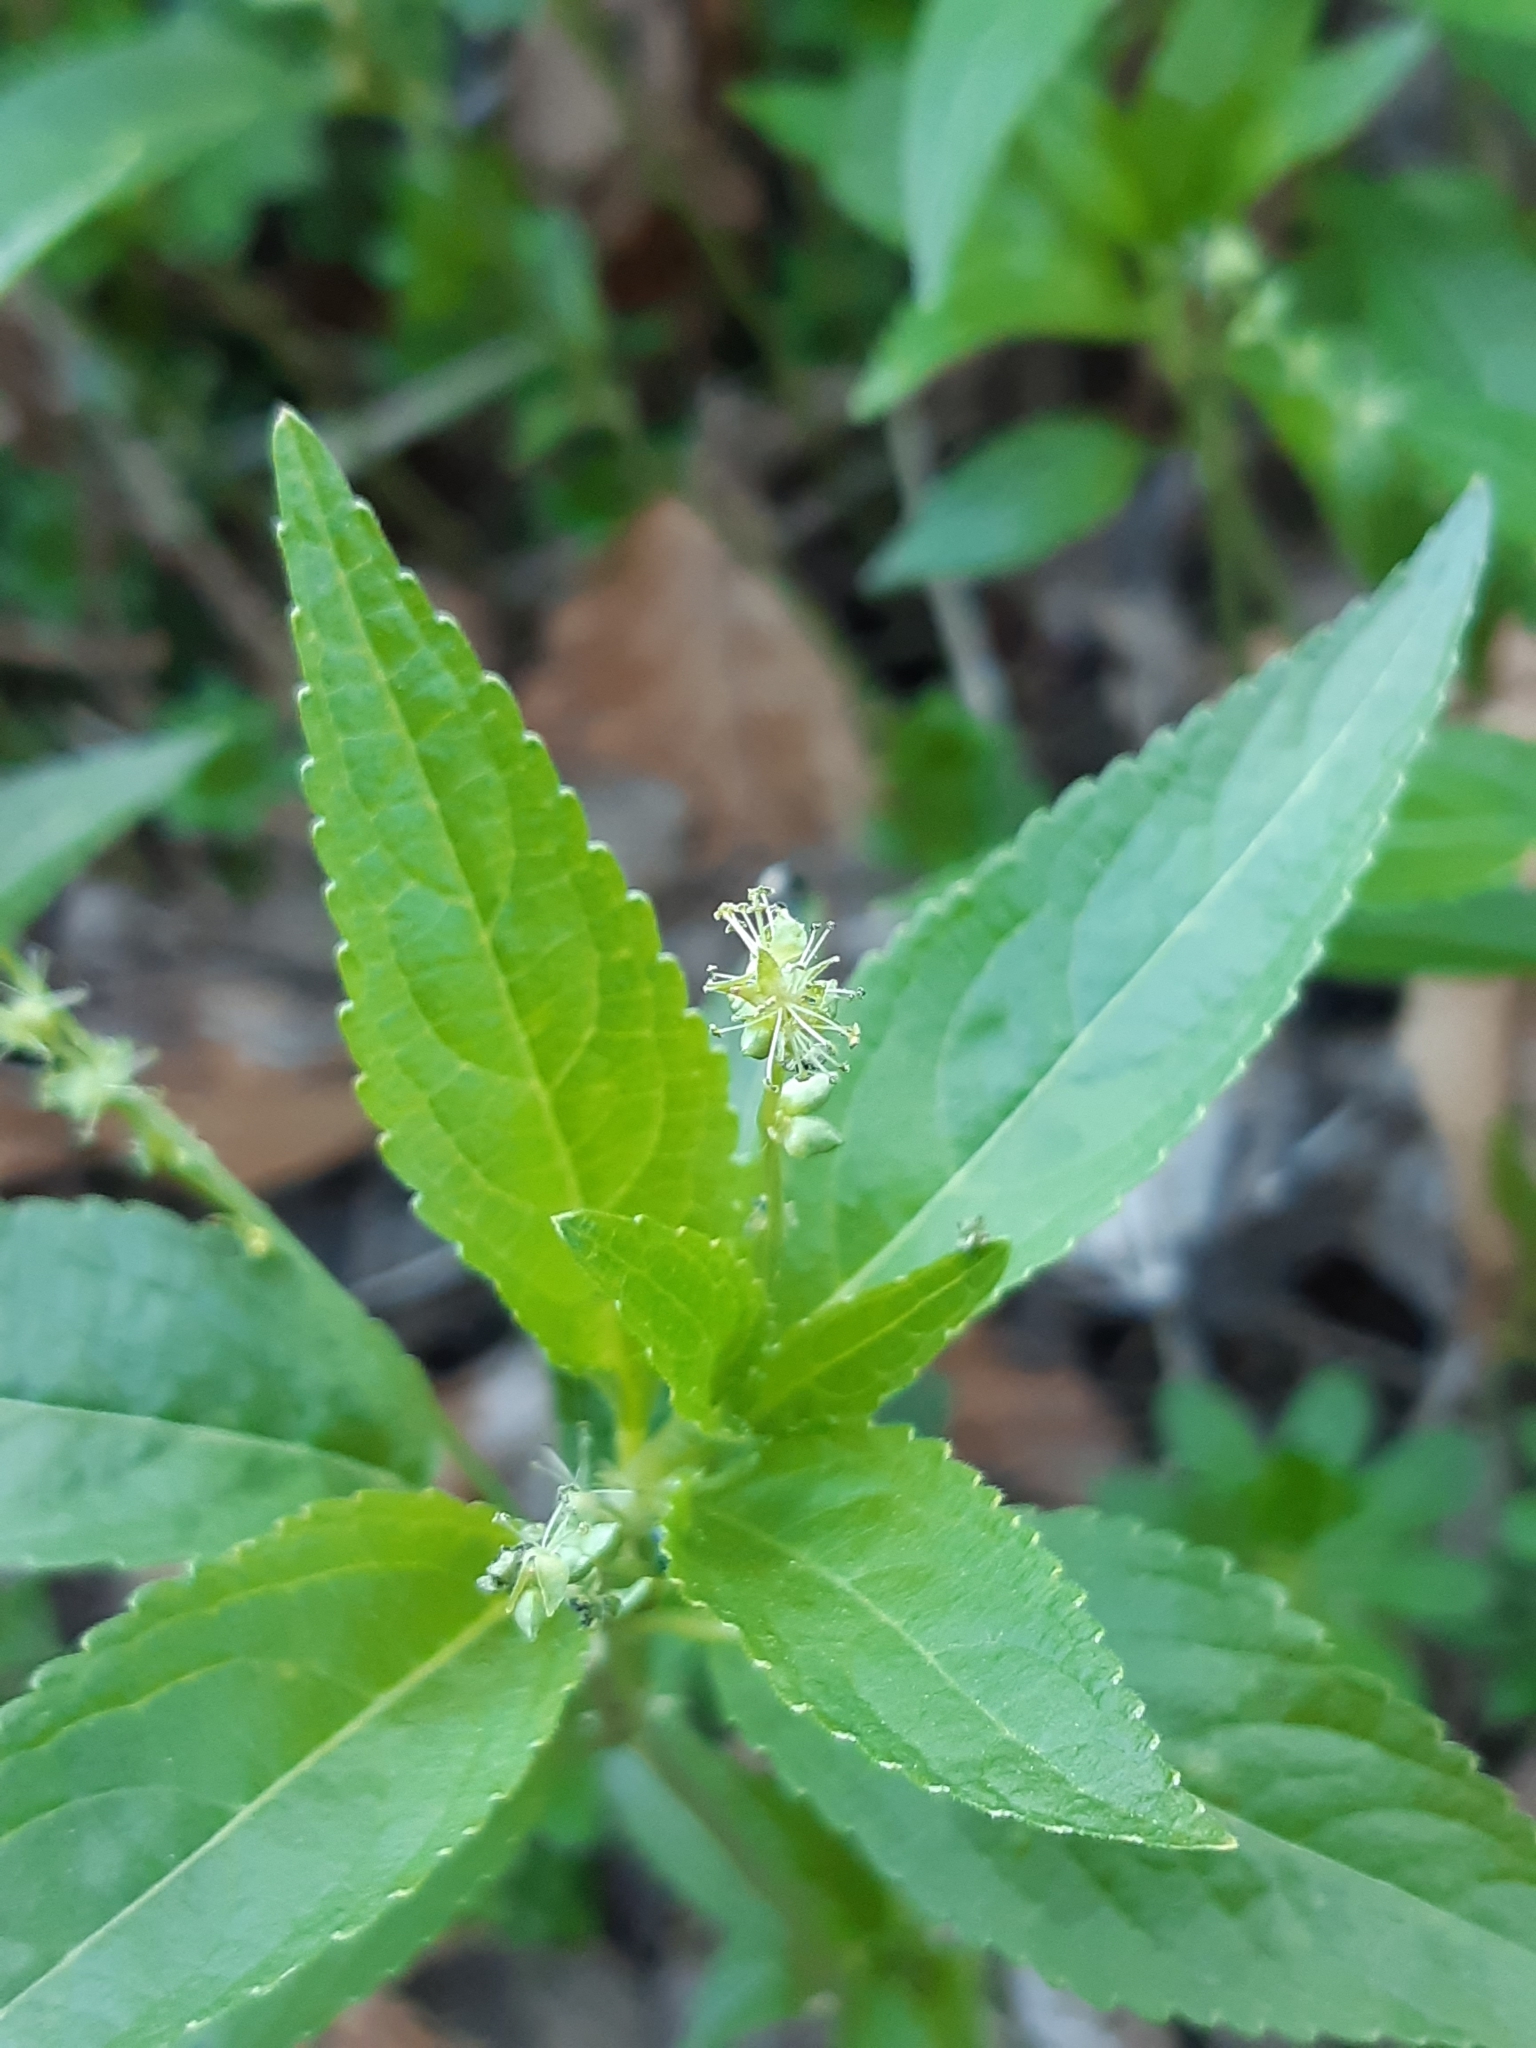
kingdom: Plantae
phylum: Tracheophyta
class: Magnoliopsida
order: Malpighiales
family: Euphorbiaceae
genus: Mercurialis
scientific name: Mercurialis perennis
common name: Dog mercury
